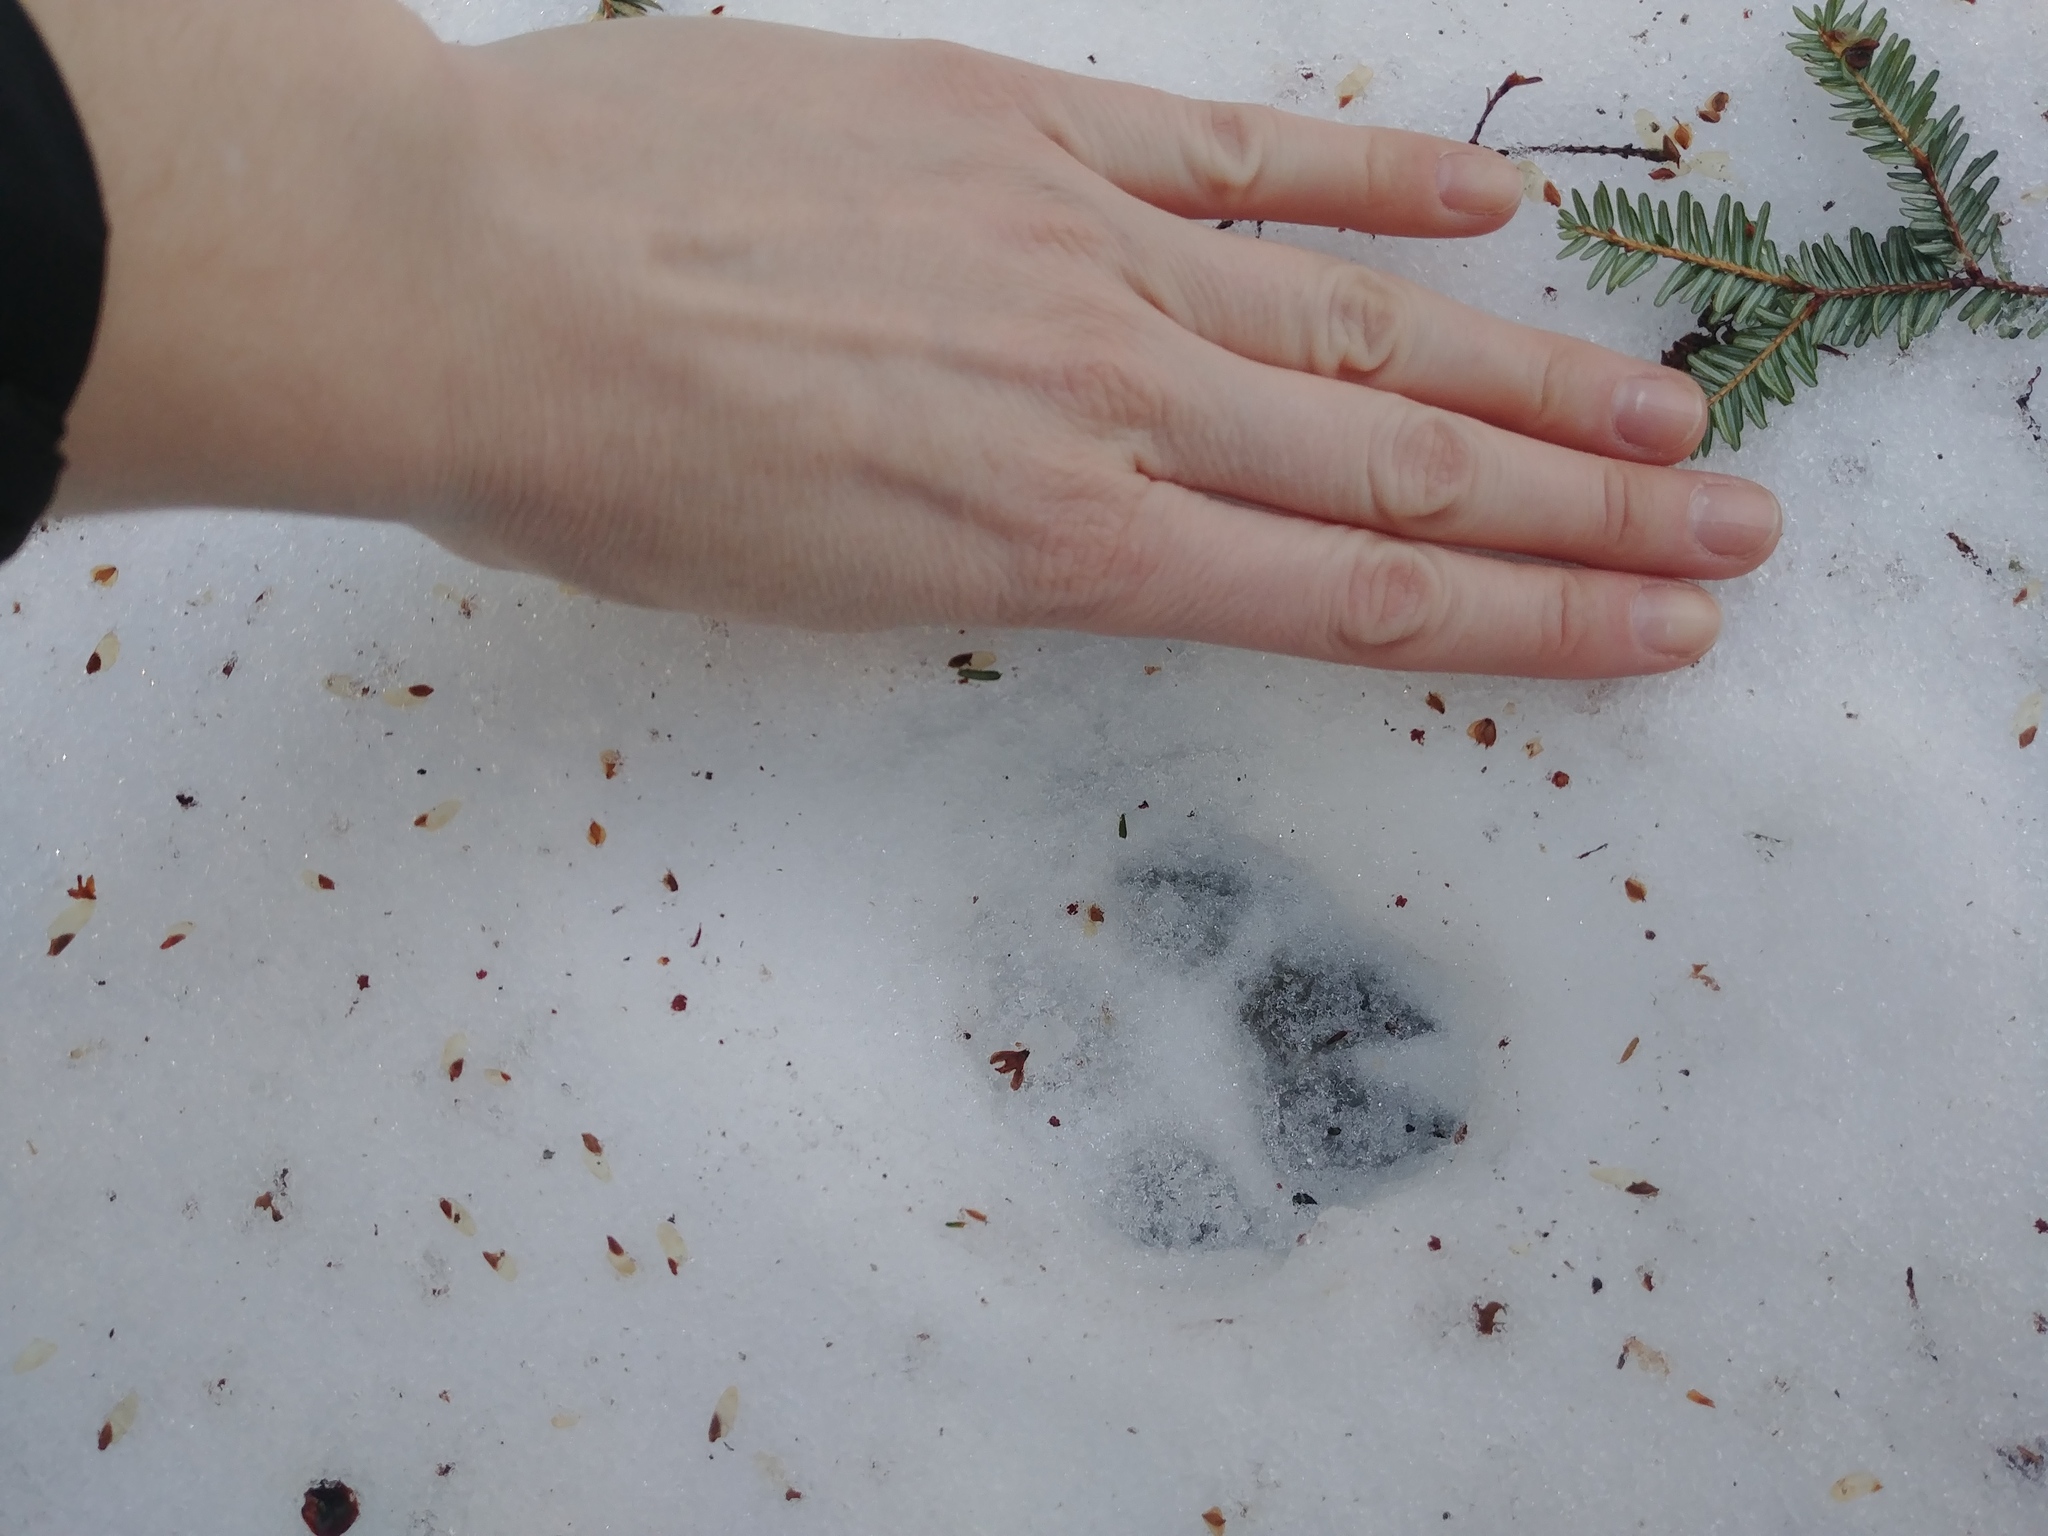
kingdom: Animalia
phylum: Chordata
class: Mammalia
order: Carnivora
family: Canidae
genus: Vulpes
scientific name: Vulpes vulpes
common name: Red fox
